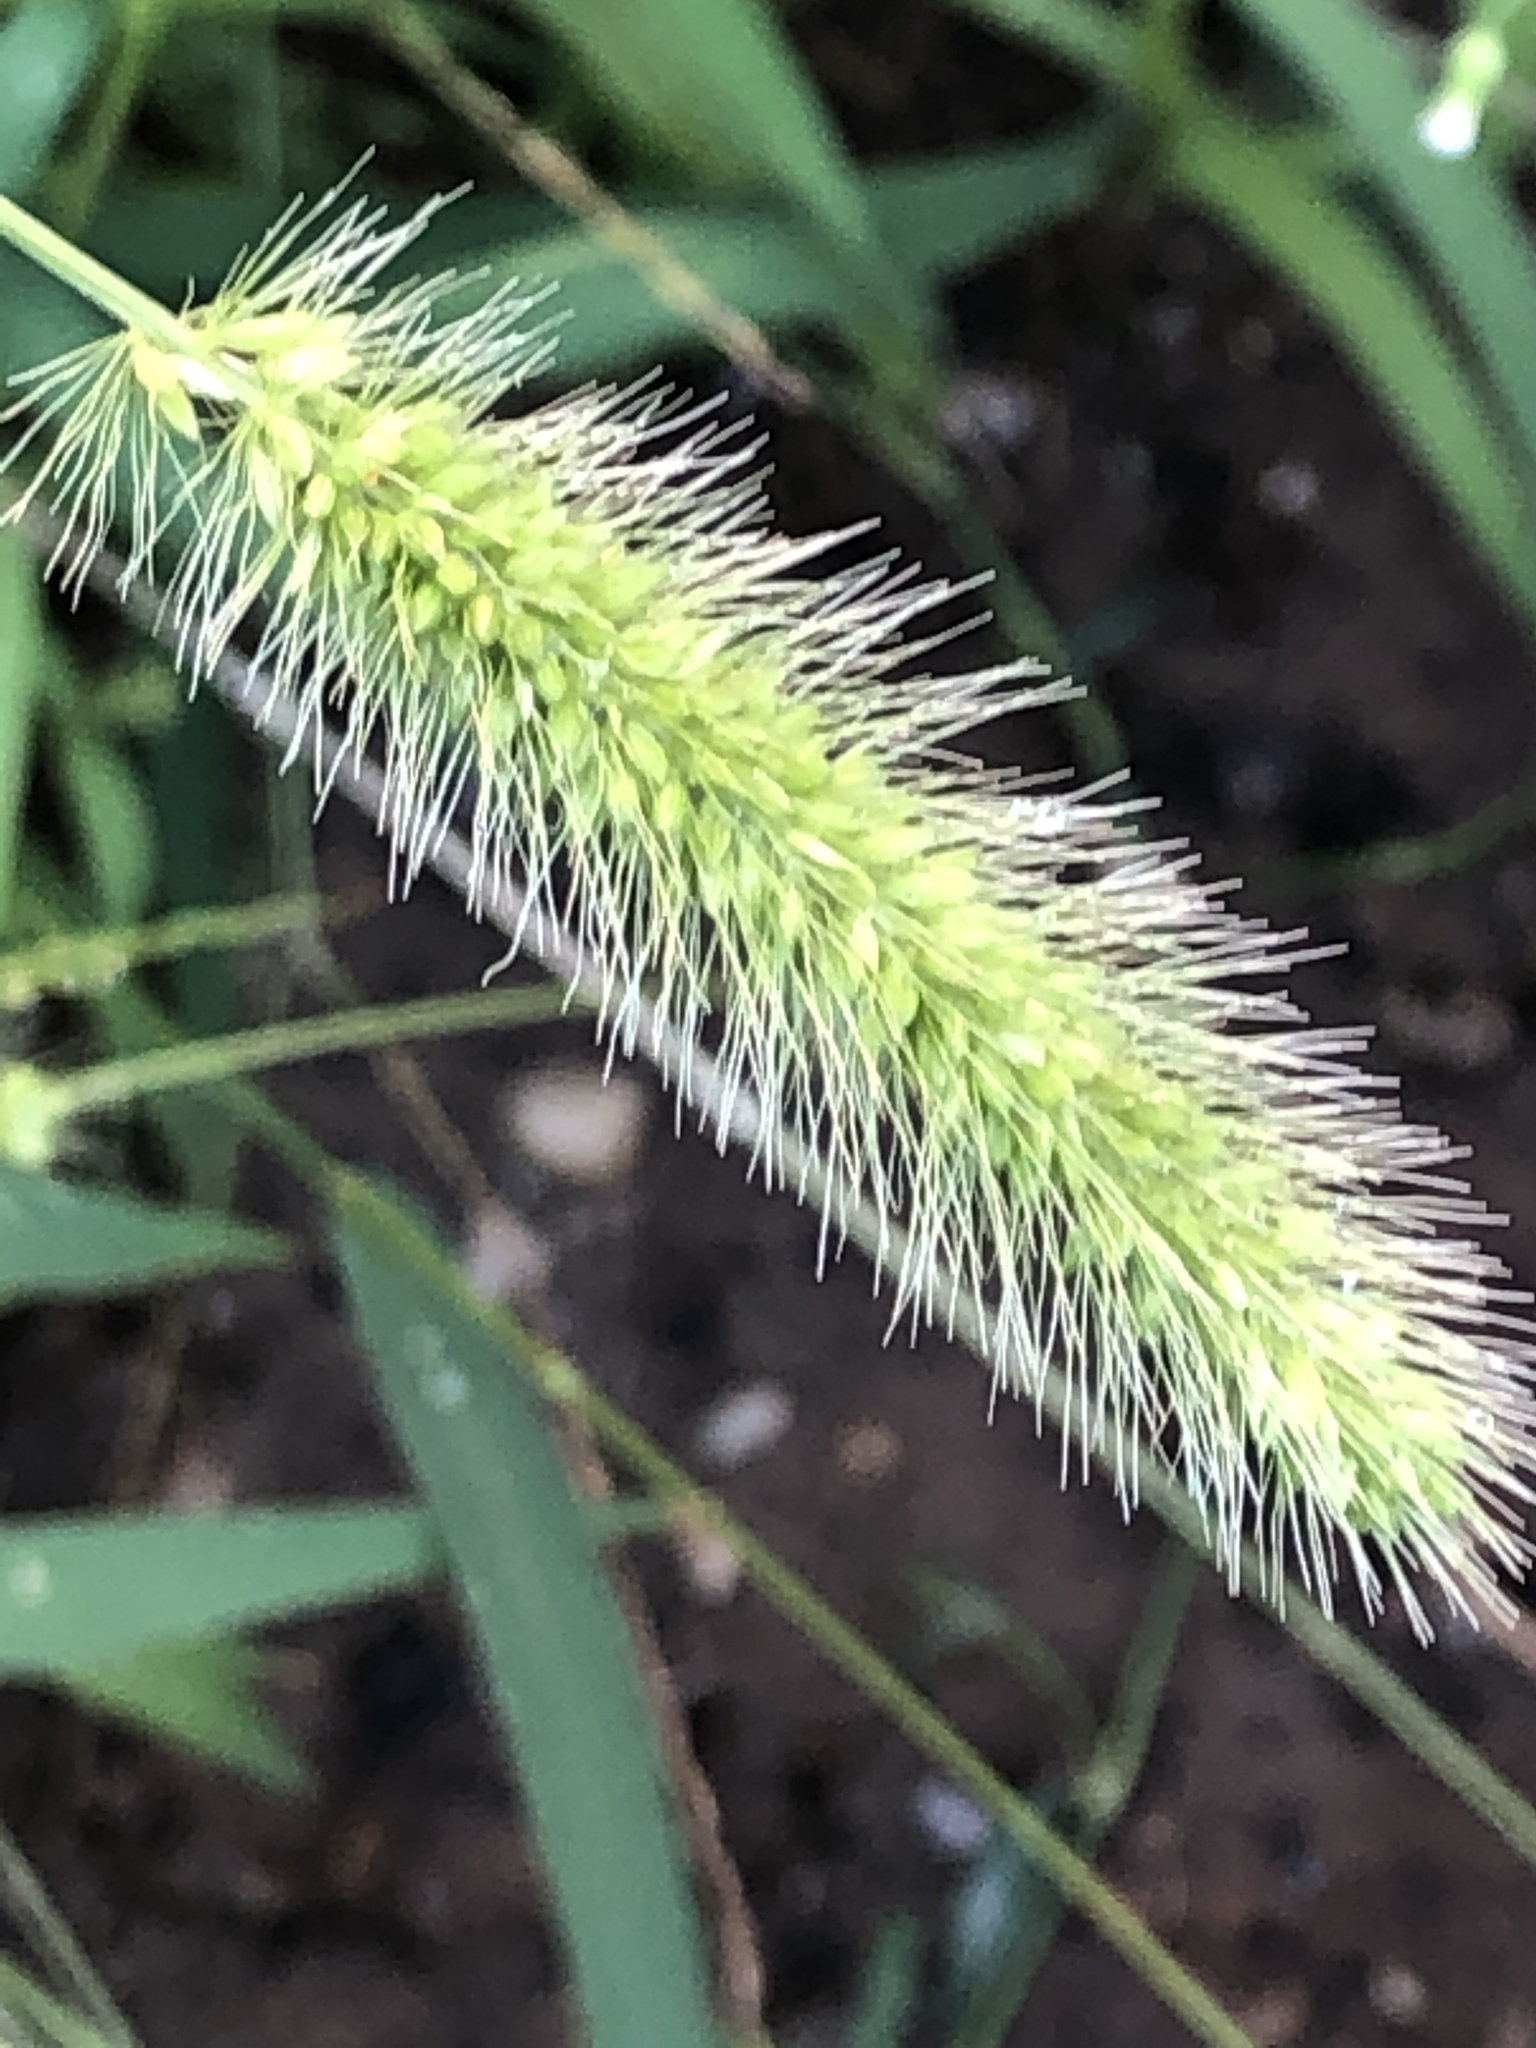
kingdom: Plantae
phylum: Tracheophyta
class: Liliopsida
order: Poales
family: Poaceae
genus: Setaria
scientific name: Setaria viridis
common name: Green bristlegrass
